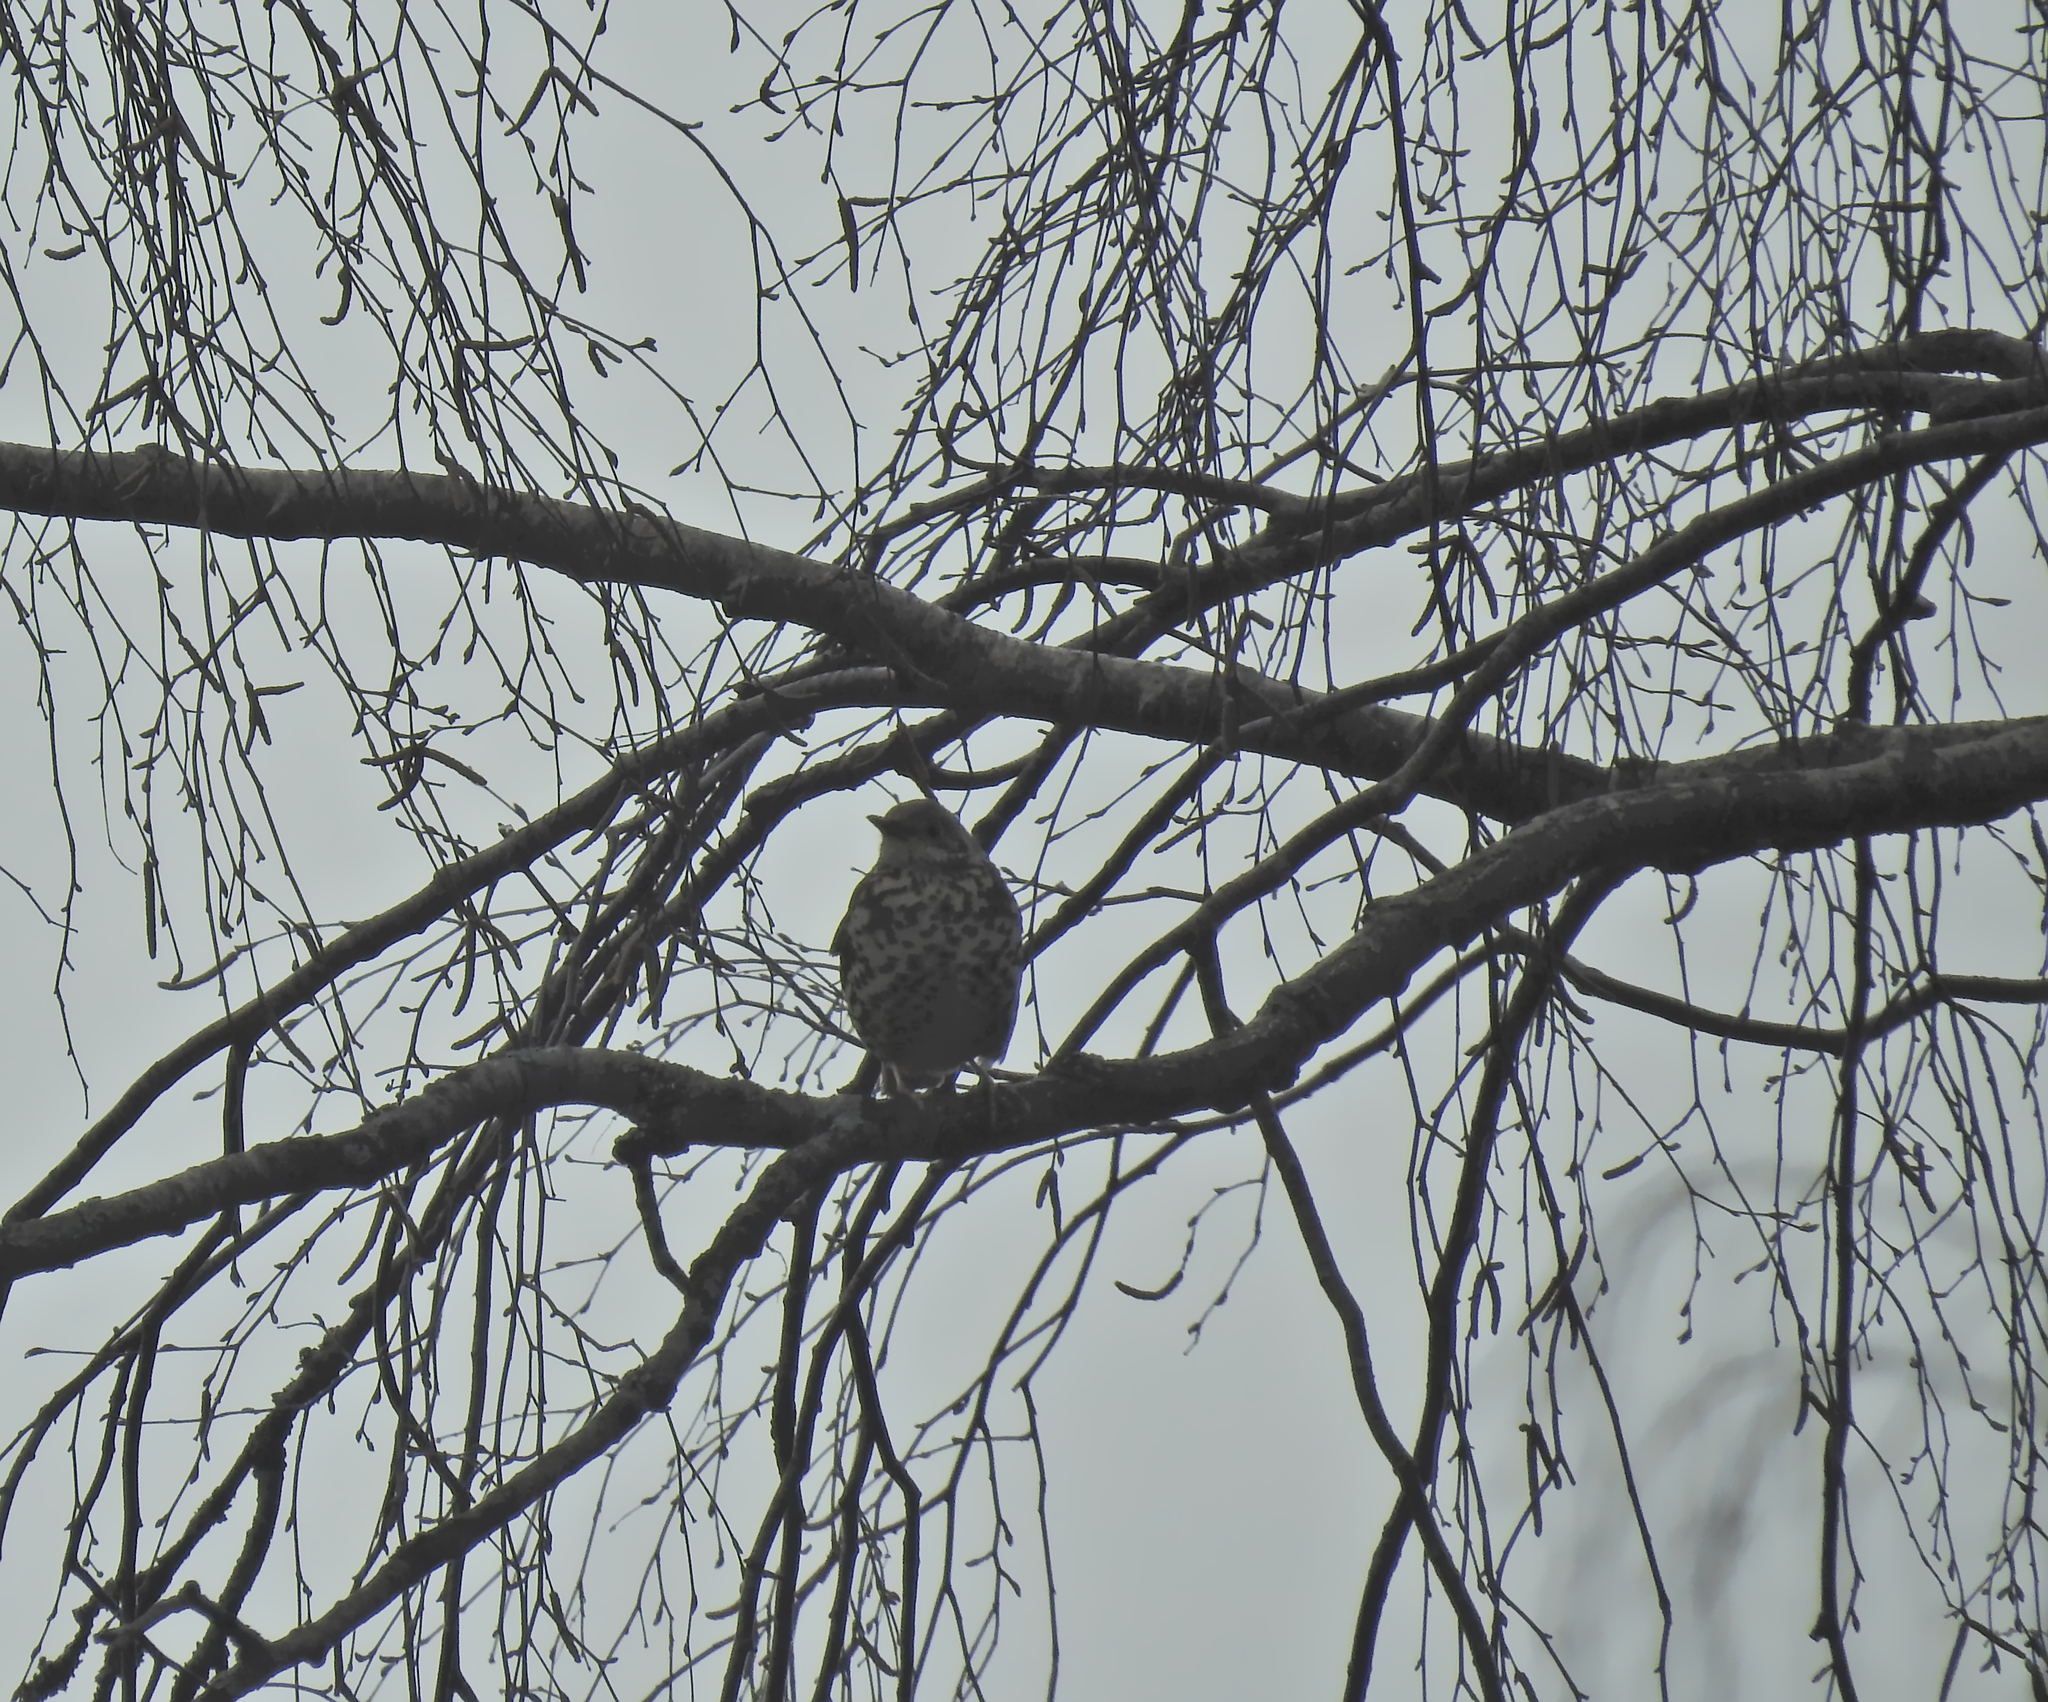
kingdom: Animalia
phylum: Chordata
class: Aves
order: Passeriformes
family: Turdidae
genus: Turdus
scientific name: Turdus viscivorus
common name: Mistle thrush
